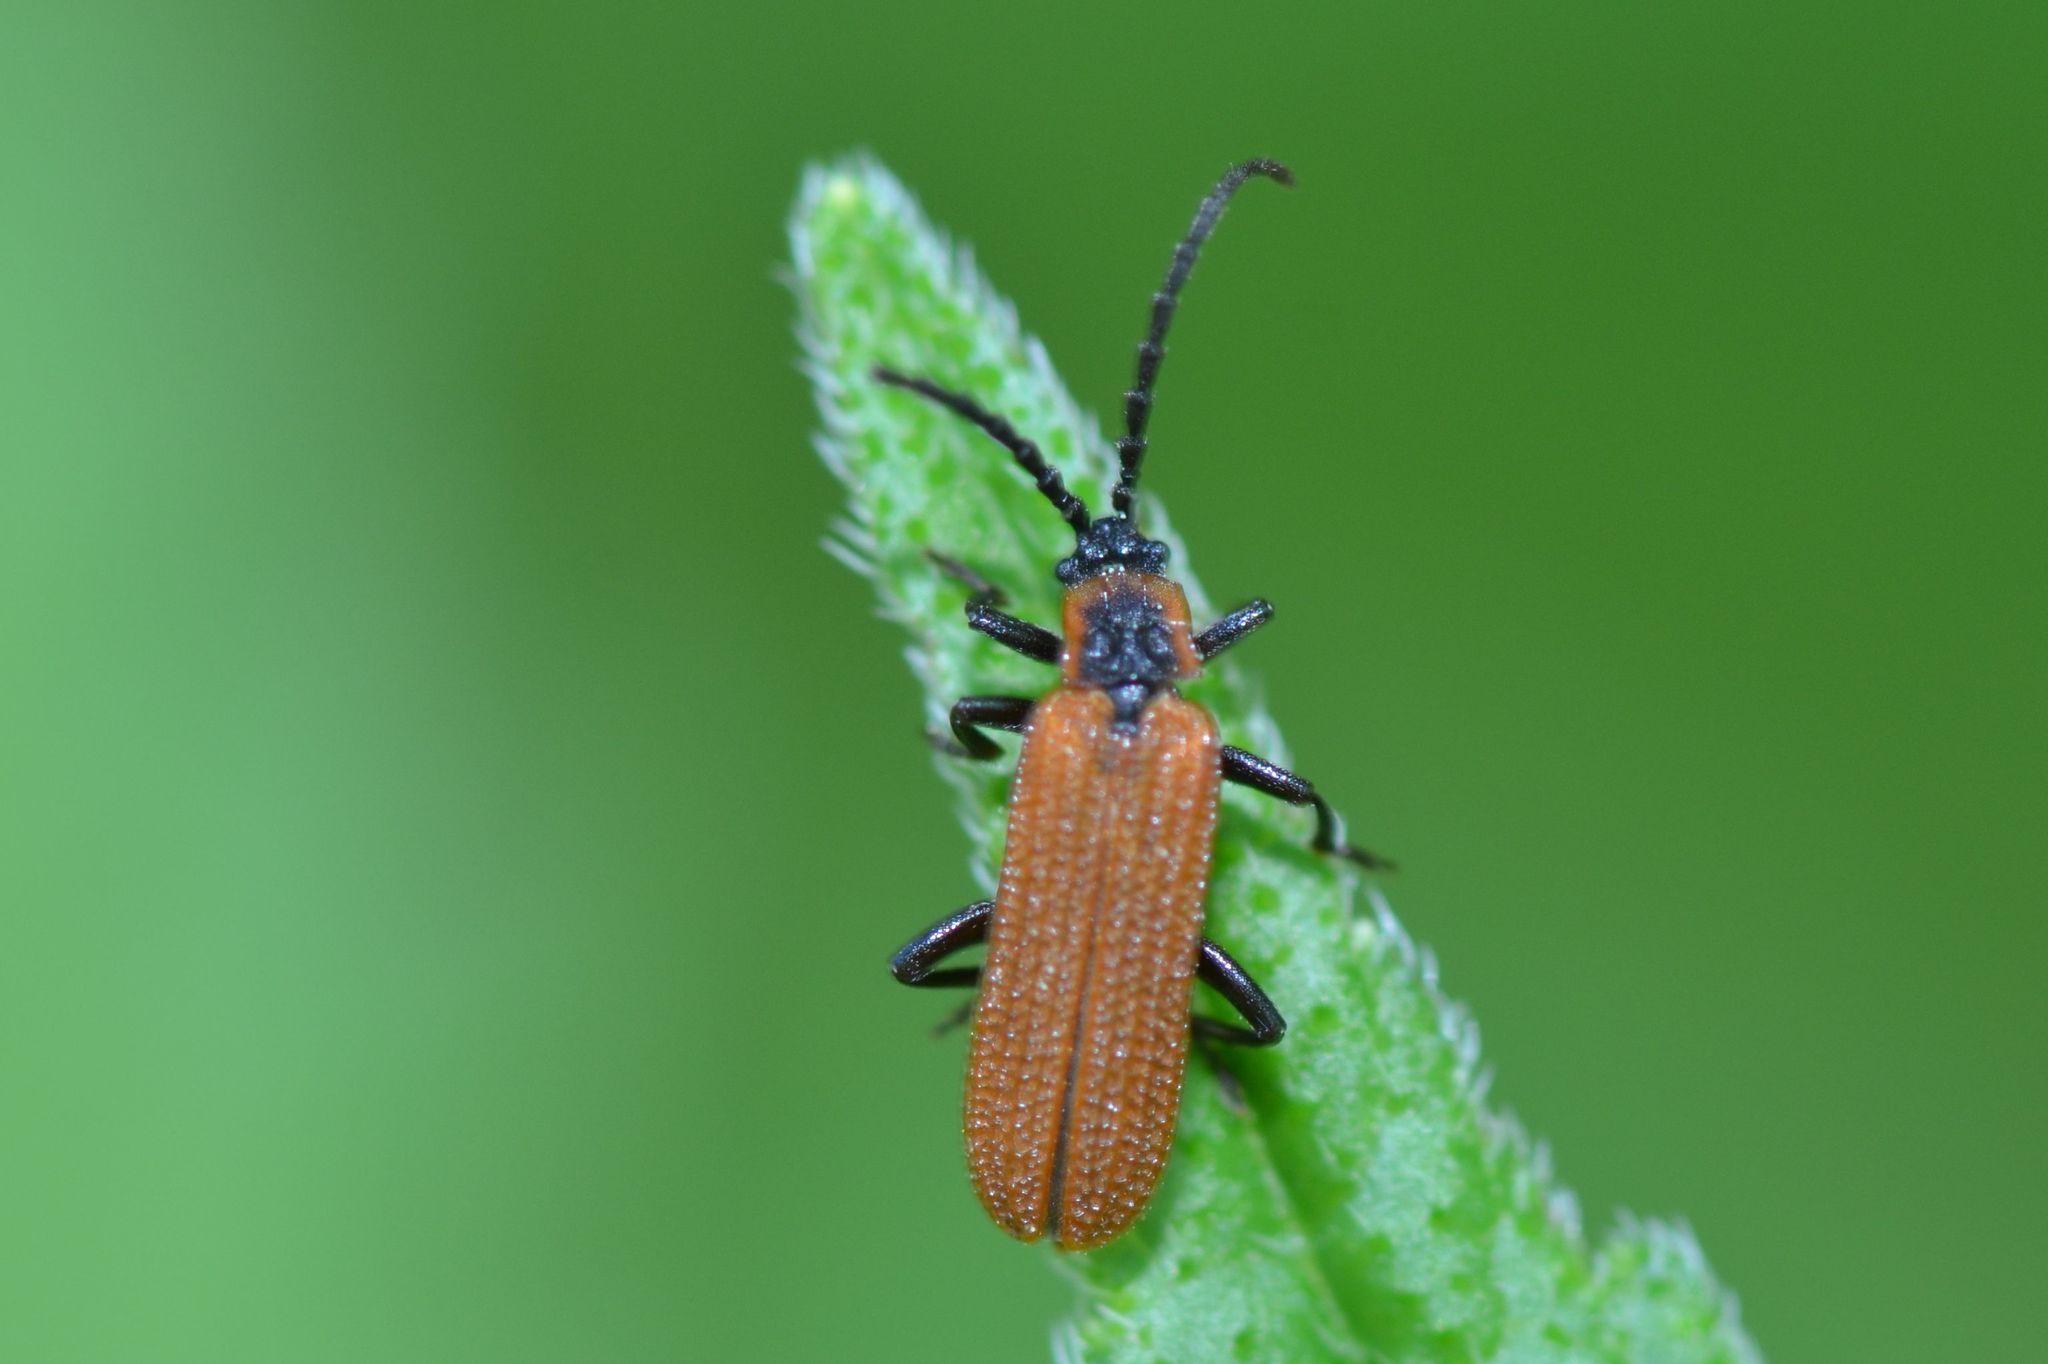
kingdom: Animalia
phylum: Arthropoda
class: Insecta
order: Coleoptera
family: Lycidae
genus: Erotides
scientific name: Erotides cosnardi
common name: Cosnard's net-winged beetle
